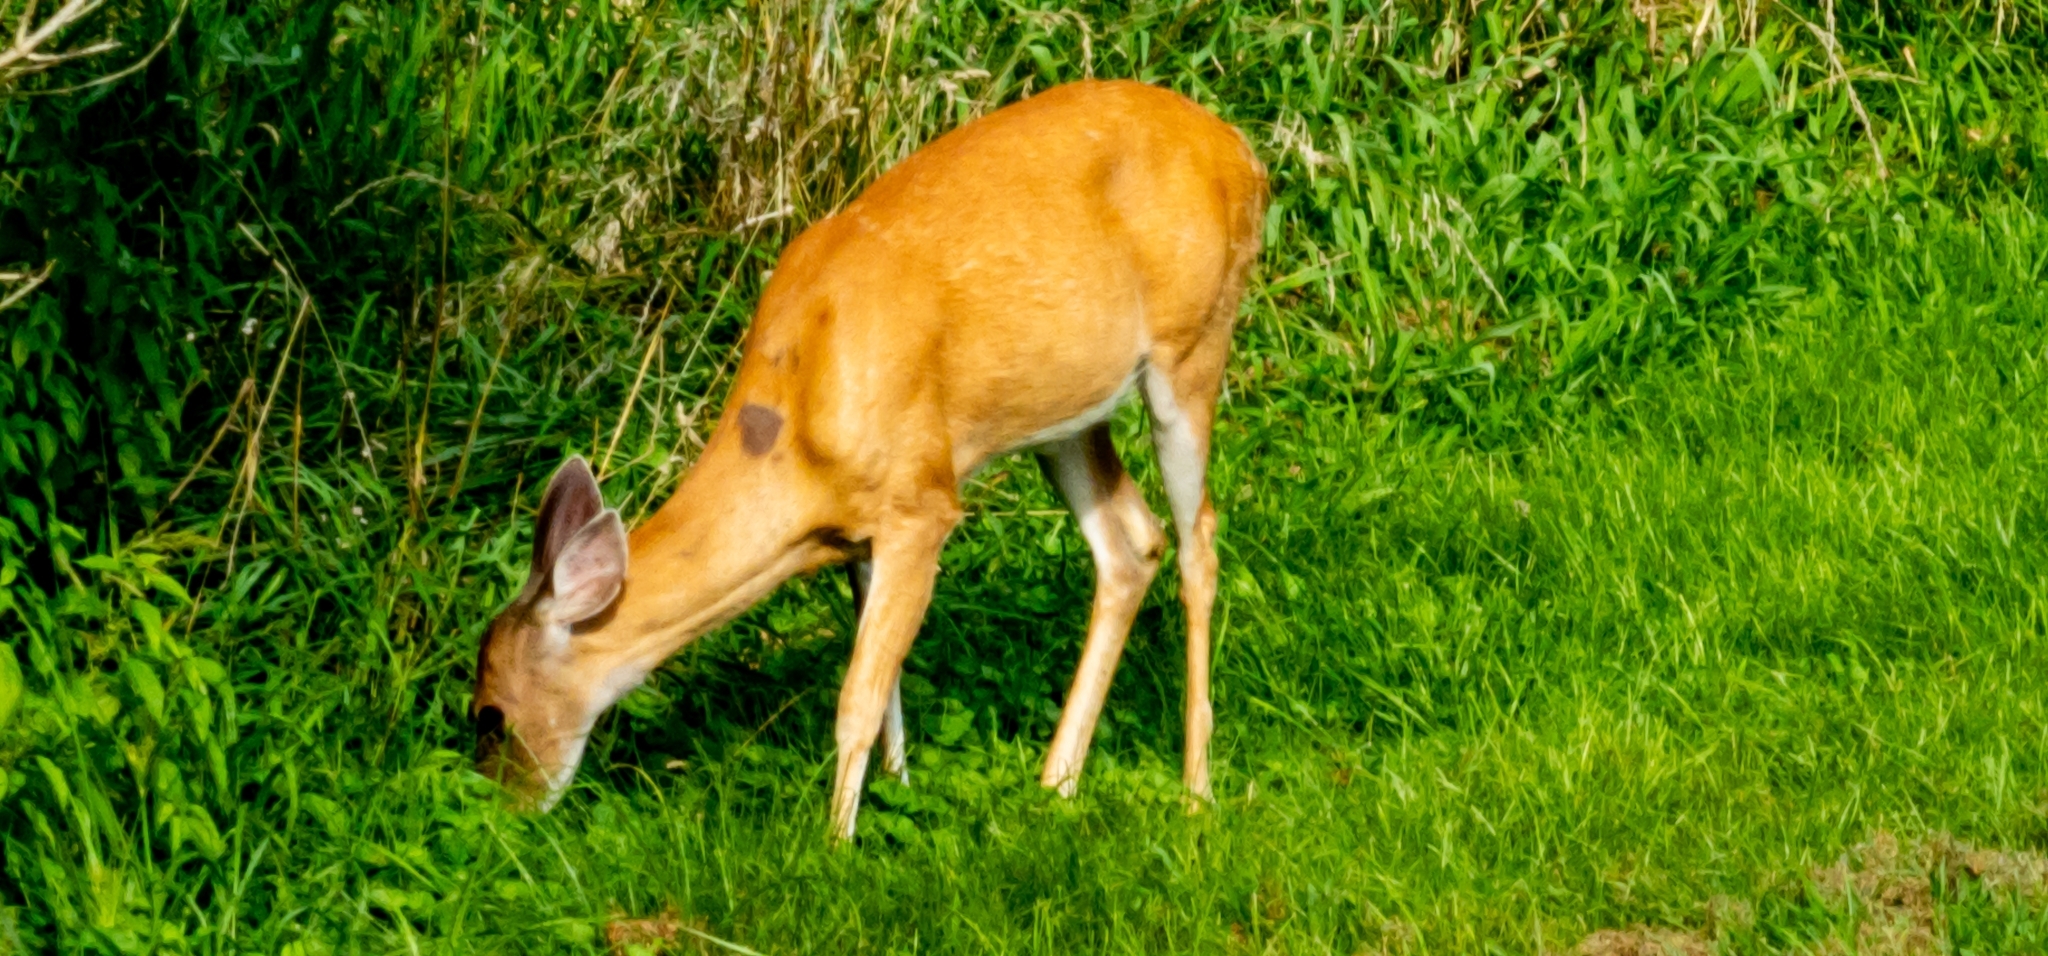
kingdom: Animalia
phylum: Chordata
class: Mammalia
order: Artiodactyla
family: Cervidae
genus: Odocoileus
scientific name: Odocoileus virginianus
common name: White-tailed deer
